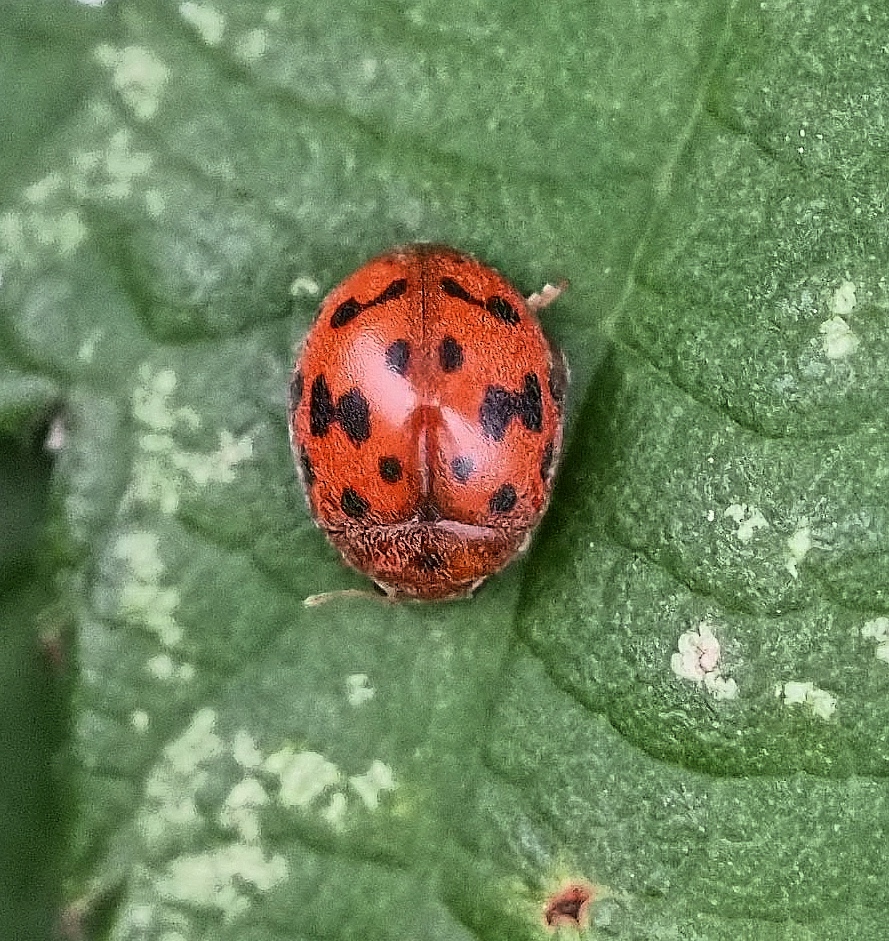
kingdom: Animalia
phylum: Arthropoda
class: Insecta
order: Coleoptera
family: Coccinellidae
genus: Subcoccinella
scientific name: Subcoccinella vigintiquatuorpunctata
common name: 24-spot ladybird
